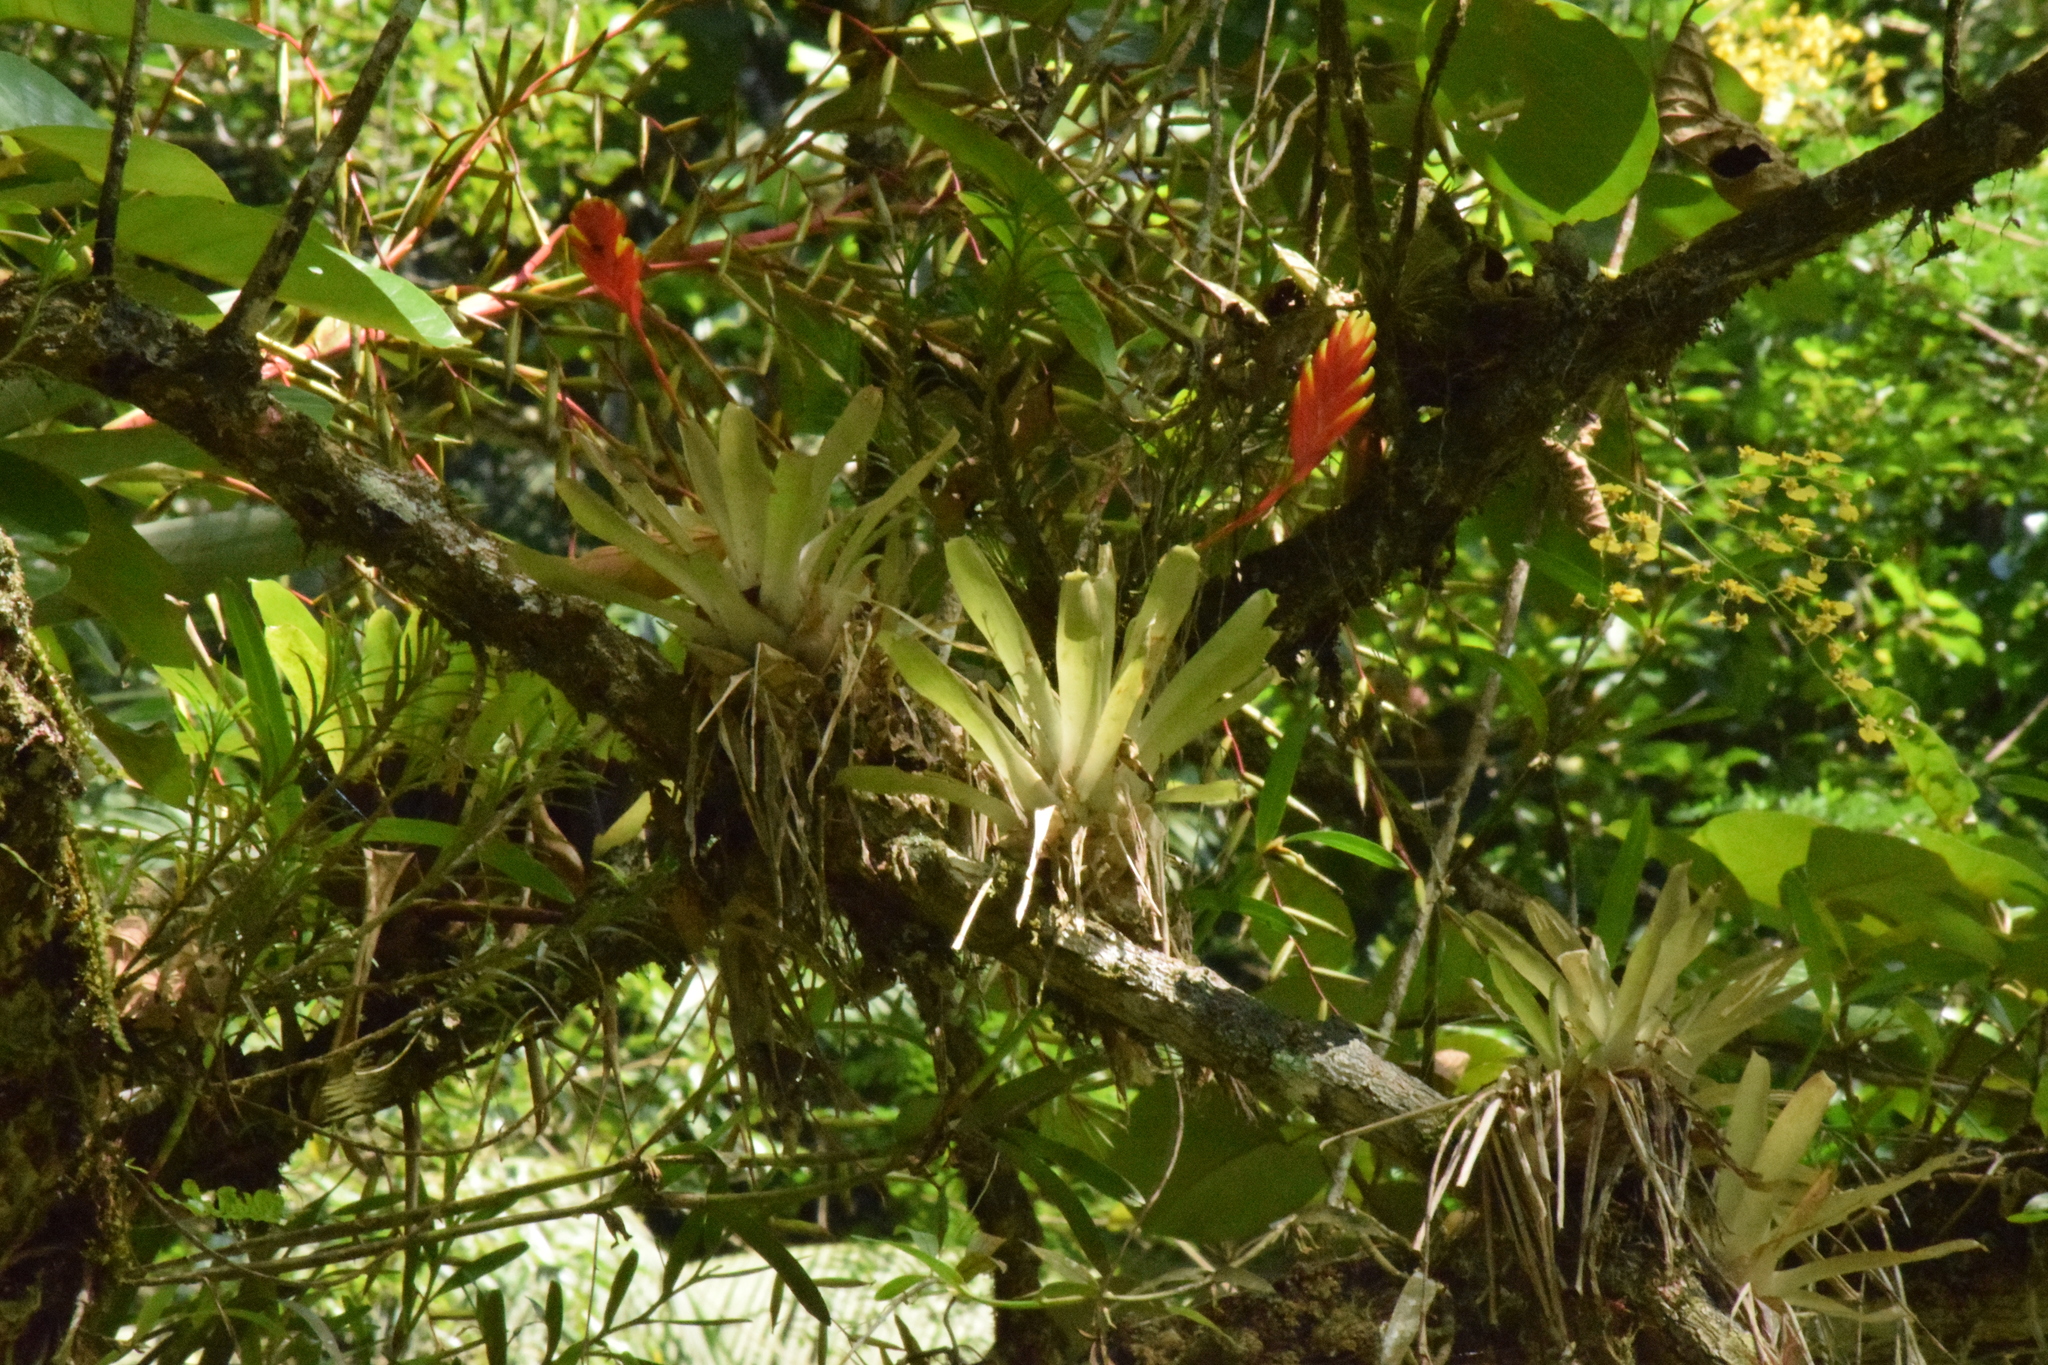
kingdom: Plantae
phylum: Tracheophyta
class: Liliopsida
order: Poales
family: Bromeliaceae
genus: Vriesea
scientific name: Vriesea carinata
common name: Lobster-claws
